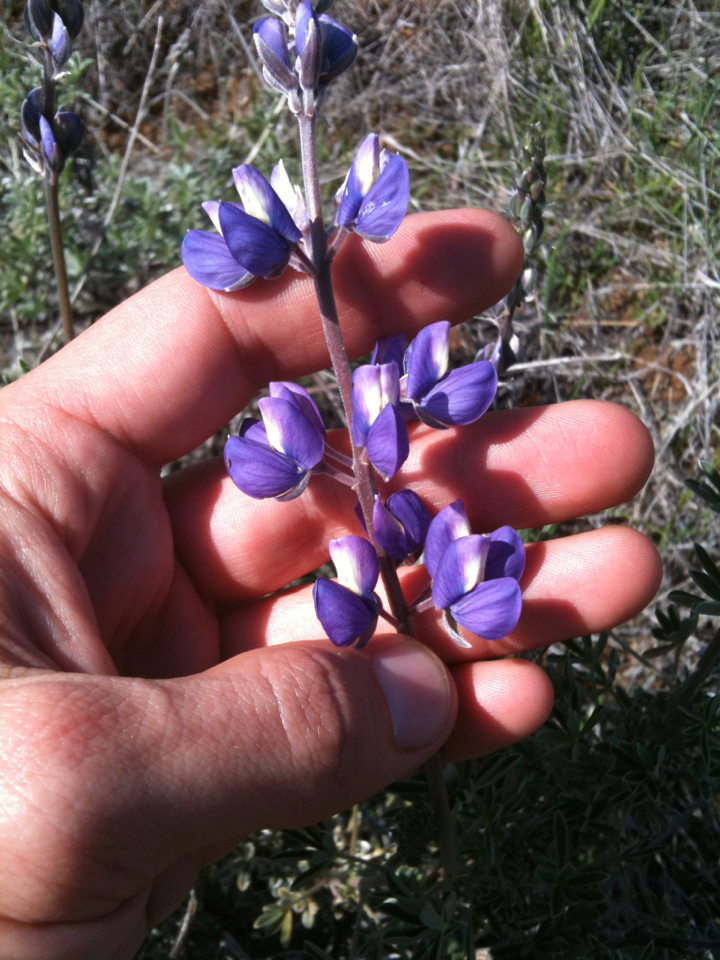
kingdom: Plantae
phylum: Tracheophyta
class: Magnoliopsida
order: Fabales
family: Fabaceae
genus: Lupinus
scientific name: Lupinus albifrons
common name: Foothill lupine
